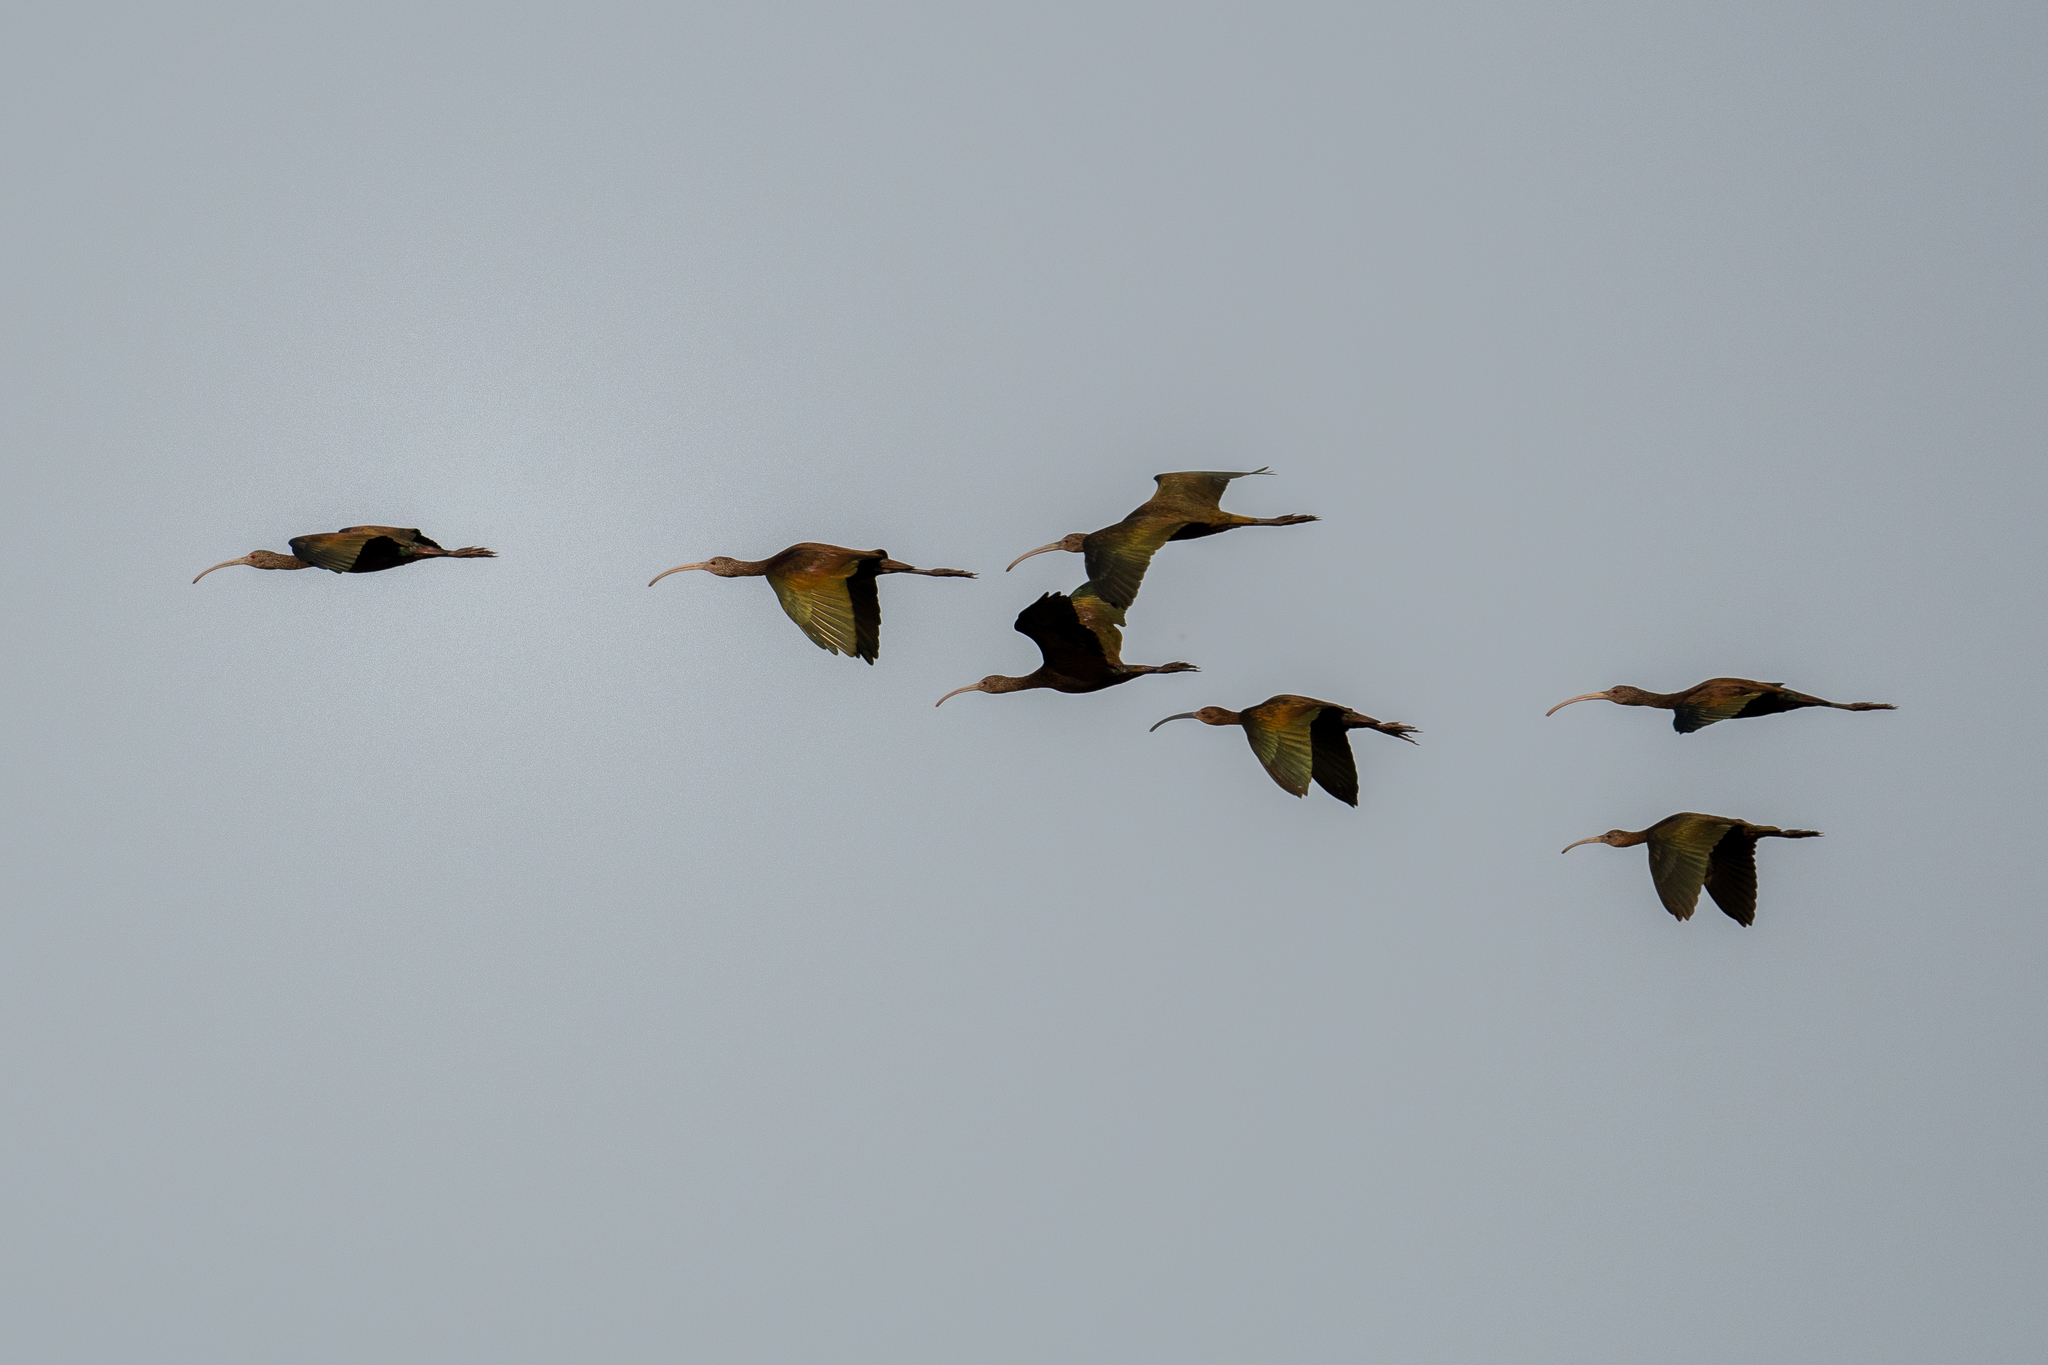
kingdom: Animalia
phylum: Chordata
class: Aves
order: Pelecaniformes
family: Threskiornithidae
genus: Plegadis
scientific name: Plegadis chihi
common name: White-faced ibis
